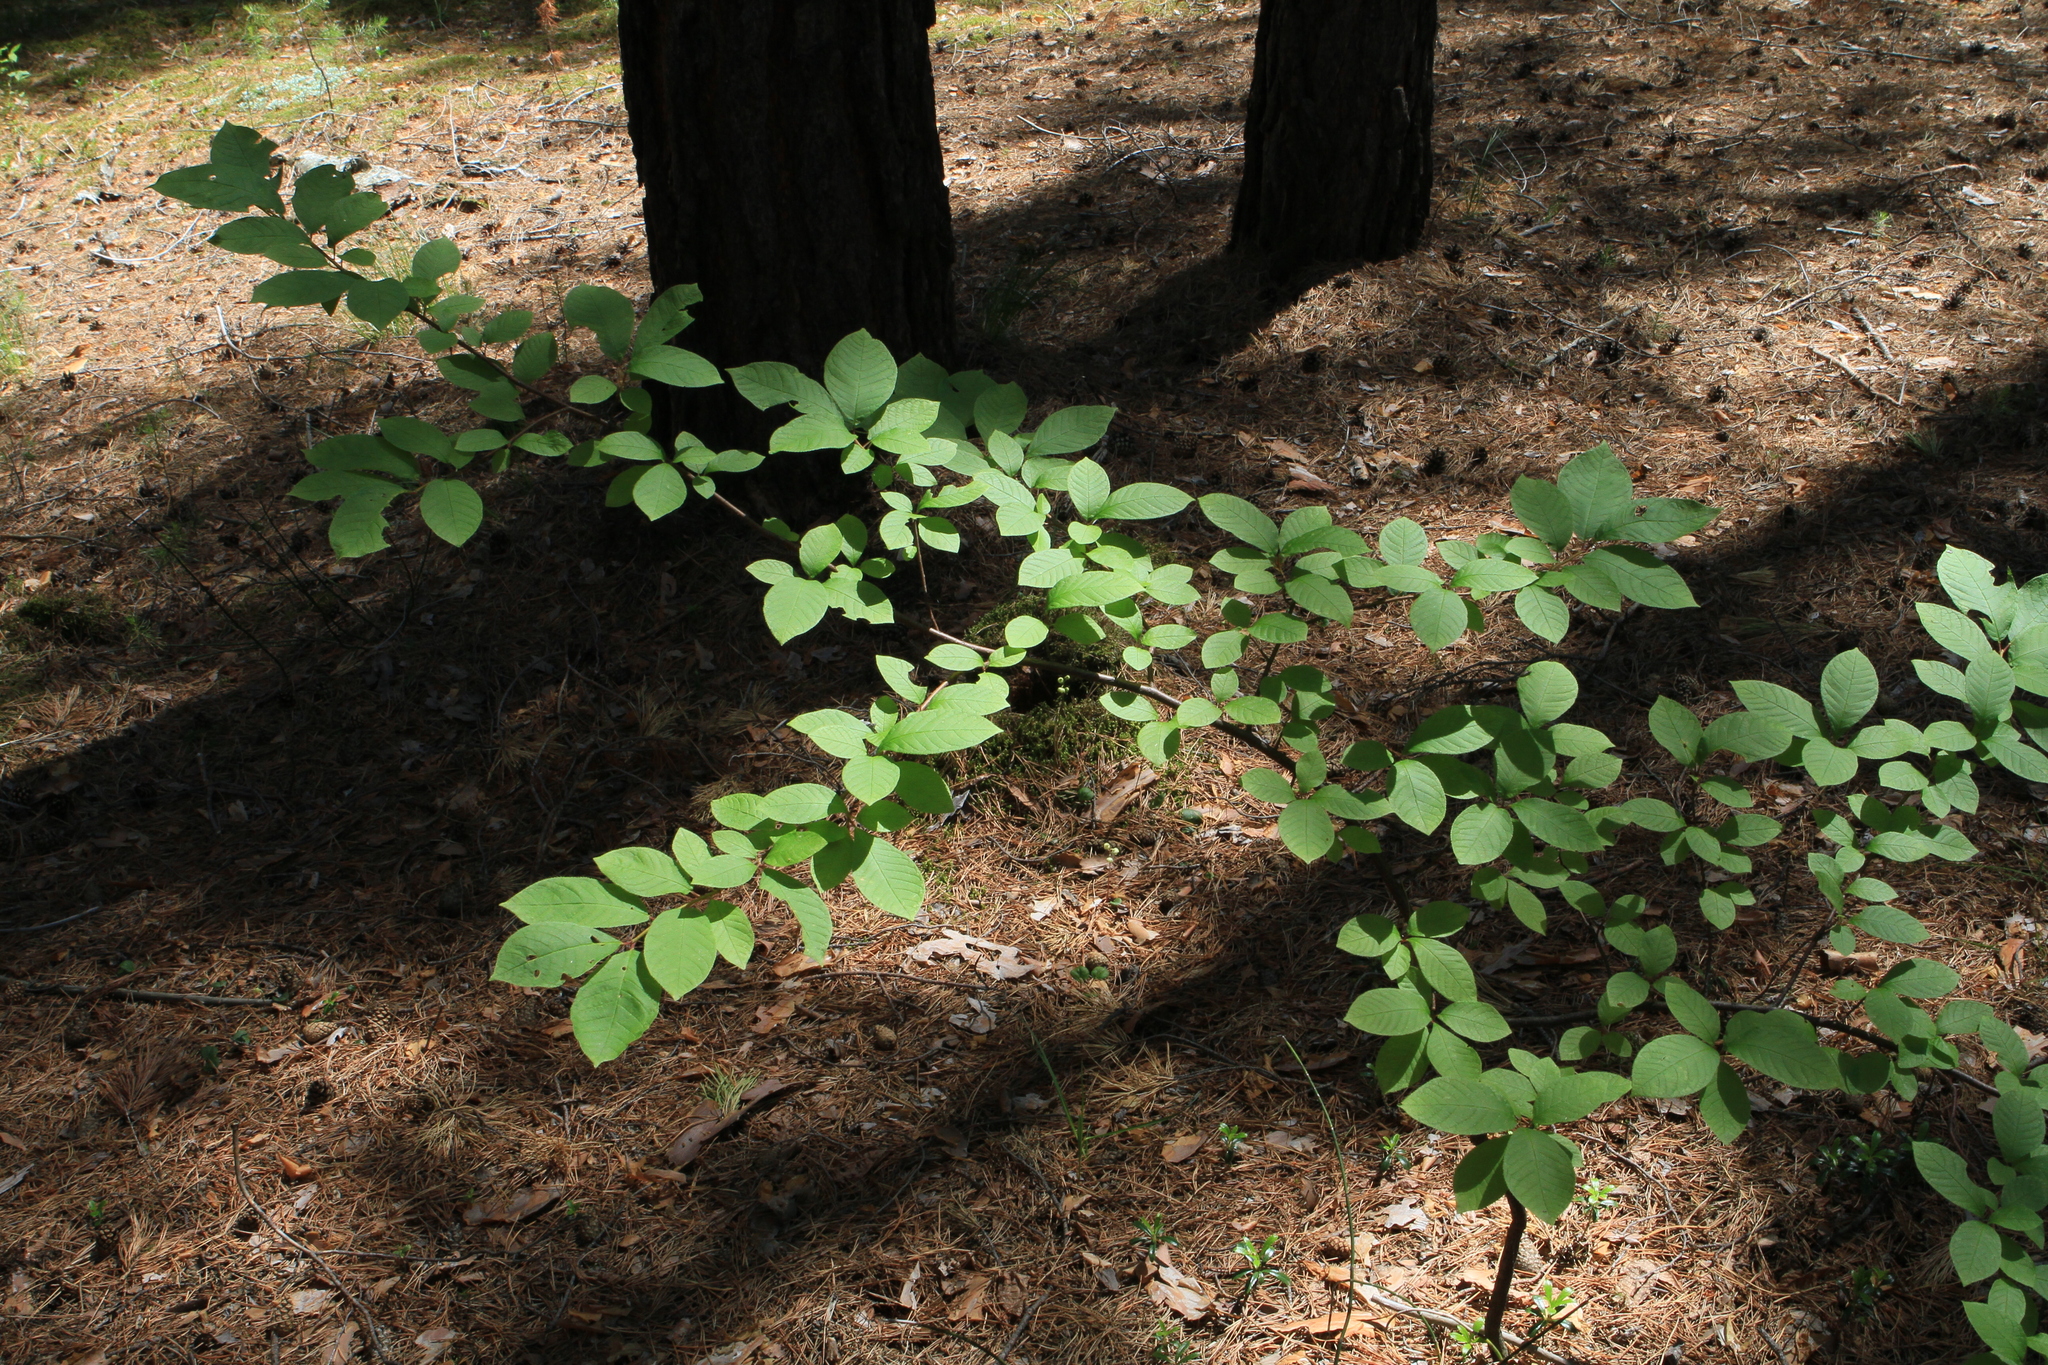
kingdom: Plantae
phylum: Tracheophyta
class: Magnoliopsida
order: Rosales
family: Rosaceae
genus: Prunus
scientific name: Prunus padus
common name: Bird cherry
